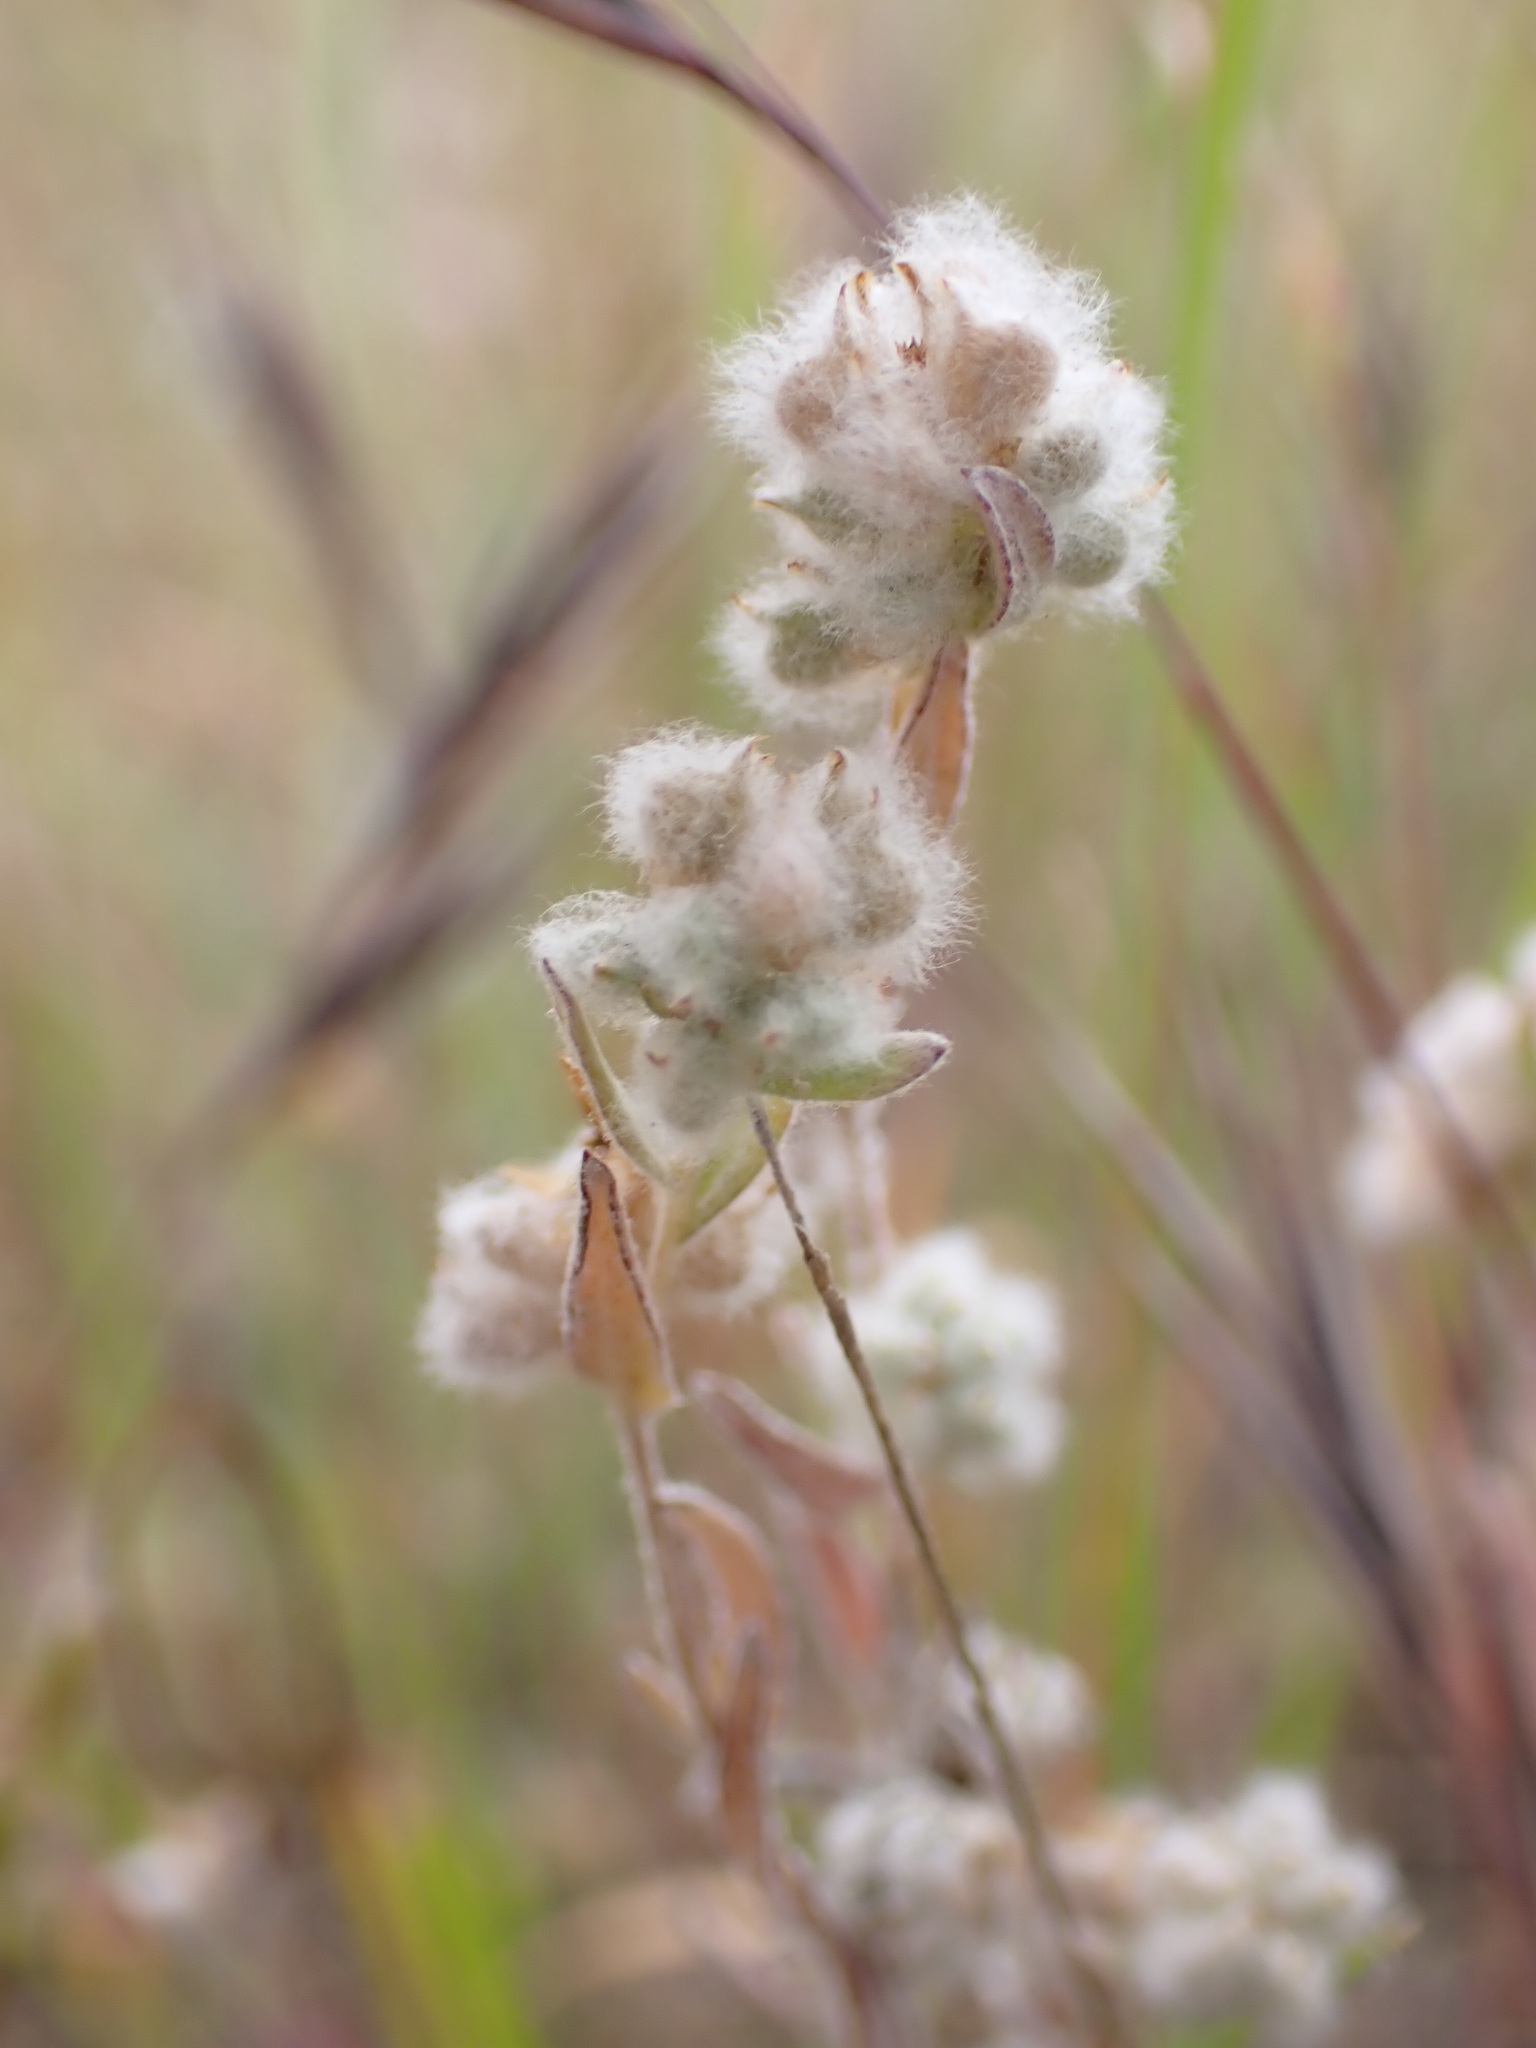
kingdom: Plantae
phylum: Tracheophyta
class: Magnoliopsida
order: Asterales
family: Asteraceae
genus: Bombycilaena
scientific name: Bombycilaena californica
